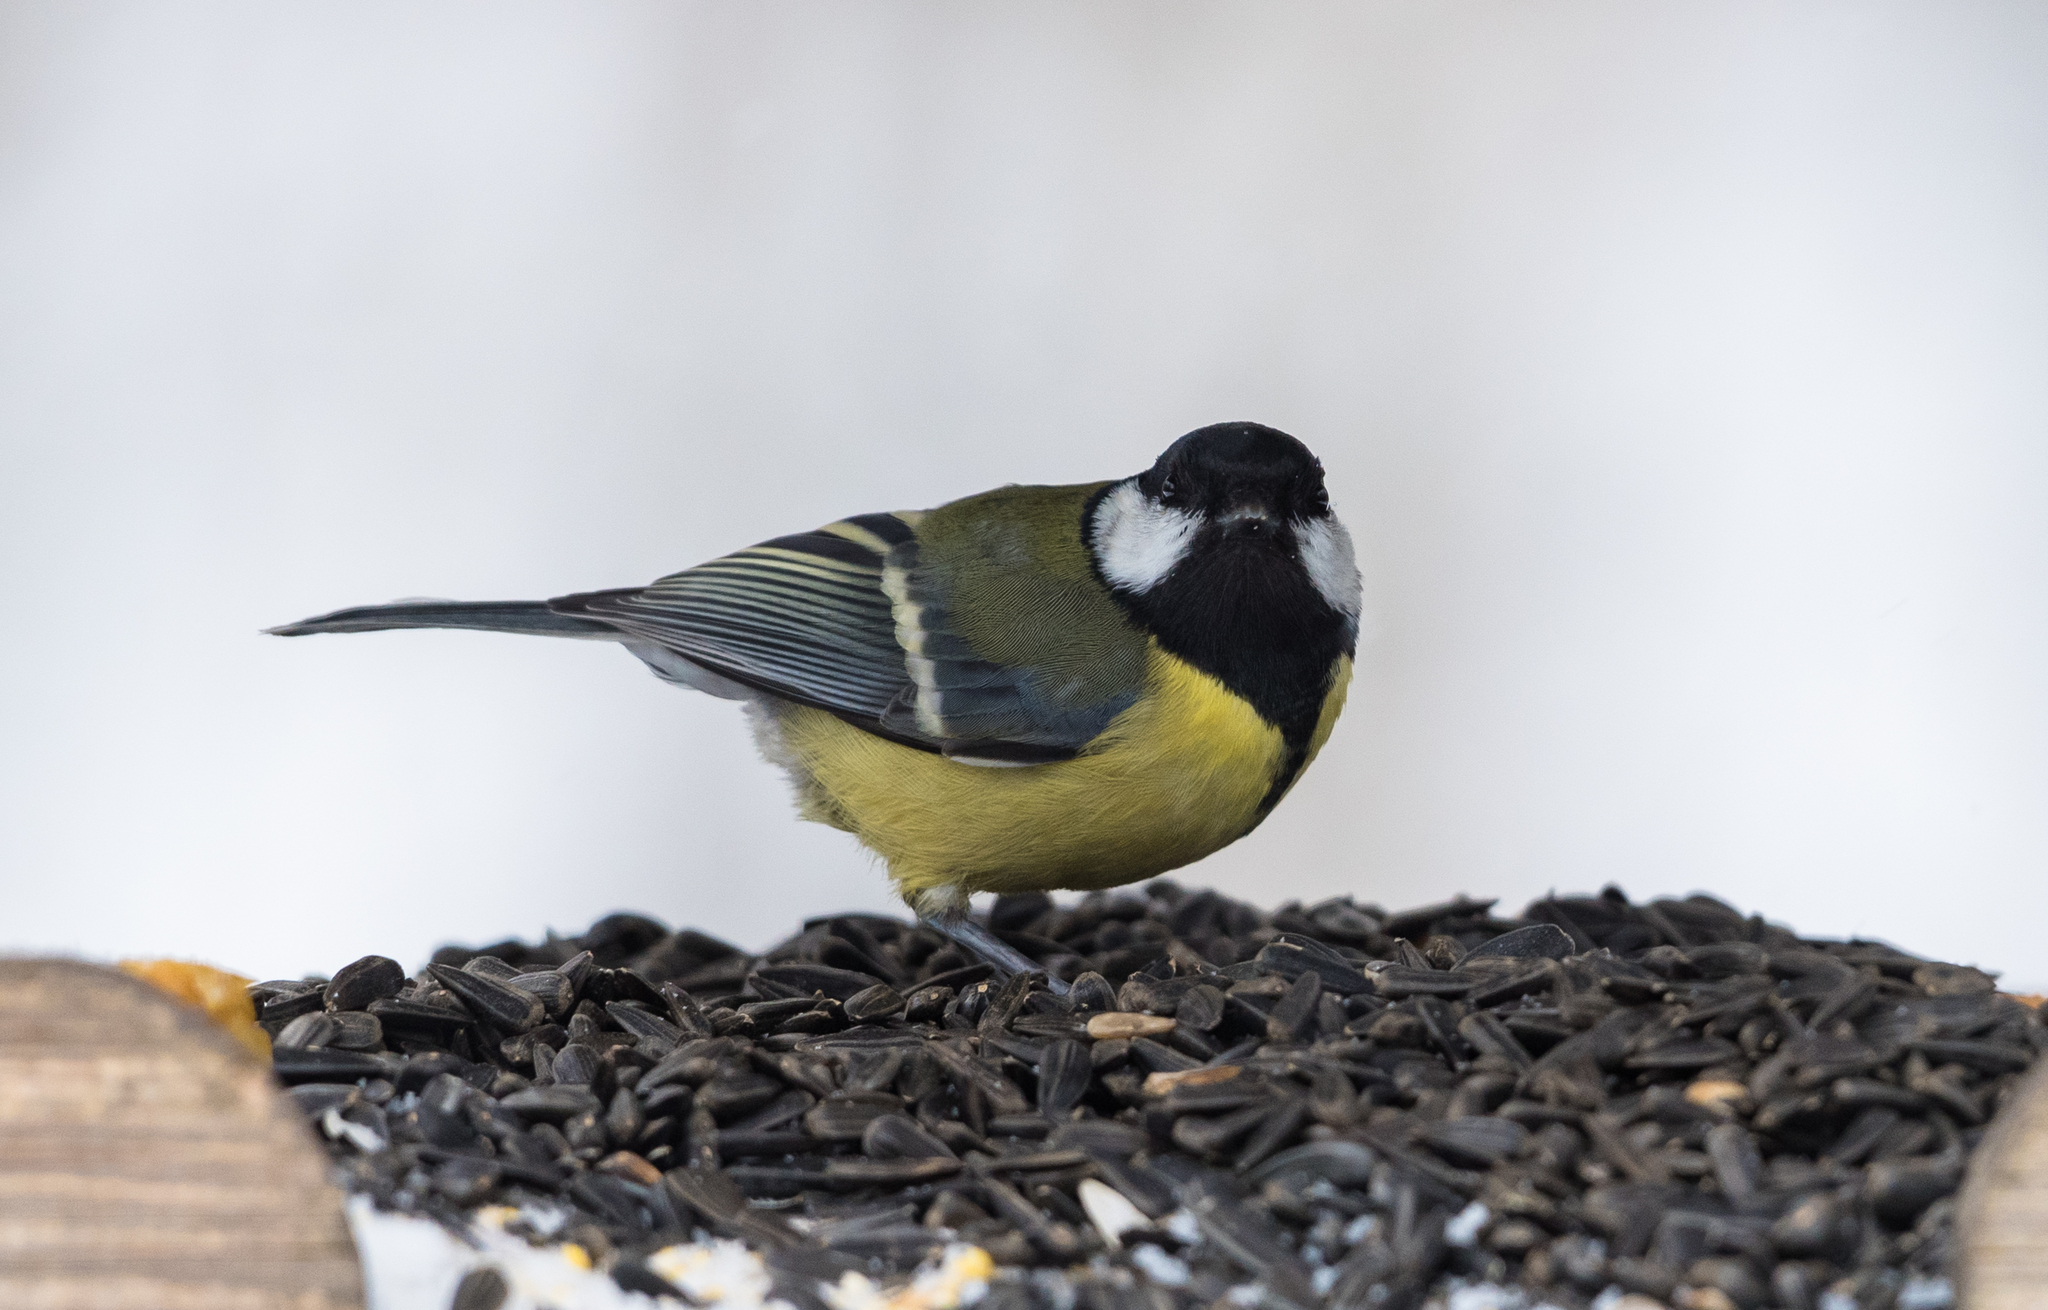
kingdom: Animalia
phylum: Chordata
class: Aves
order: Passeriformes
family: Paridae
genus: Parus
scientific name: Parus major
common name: Great tit
